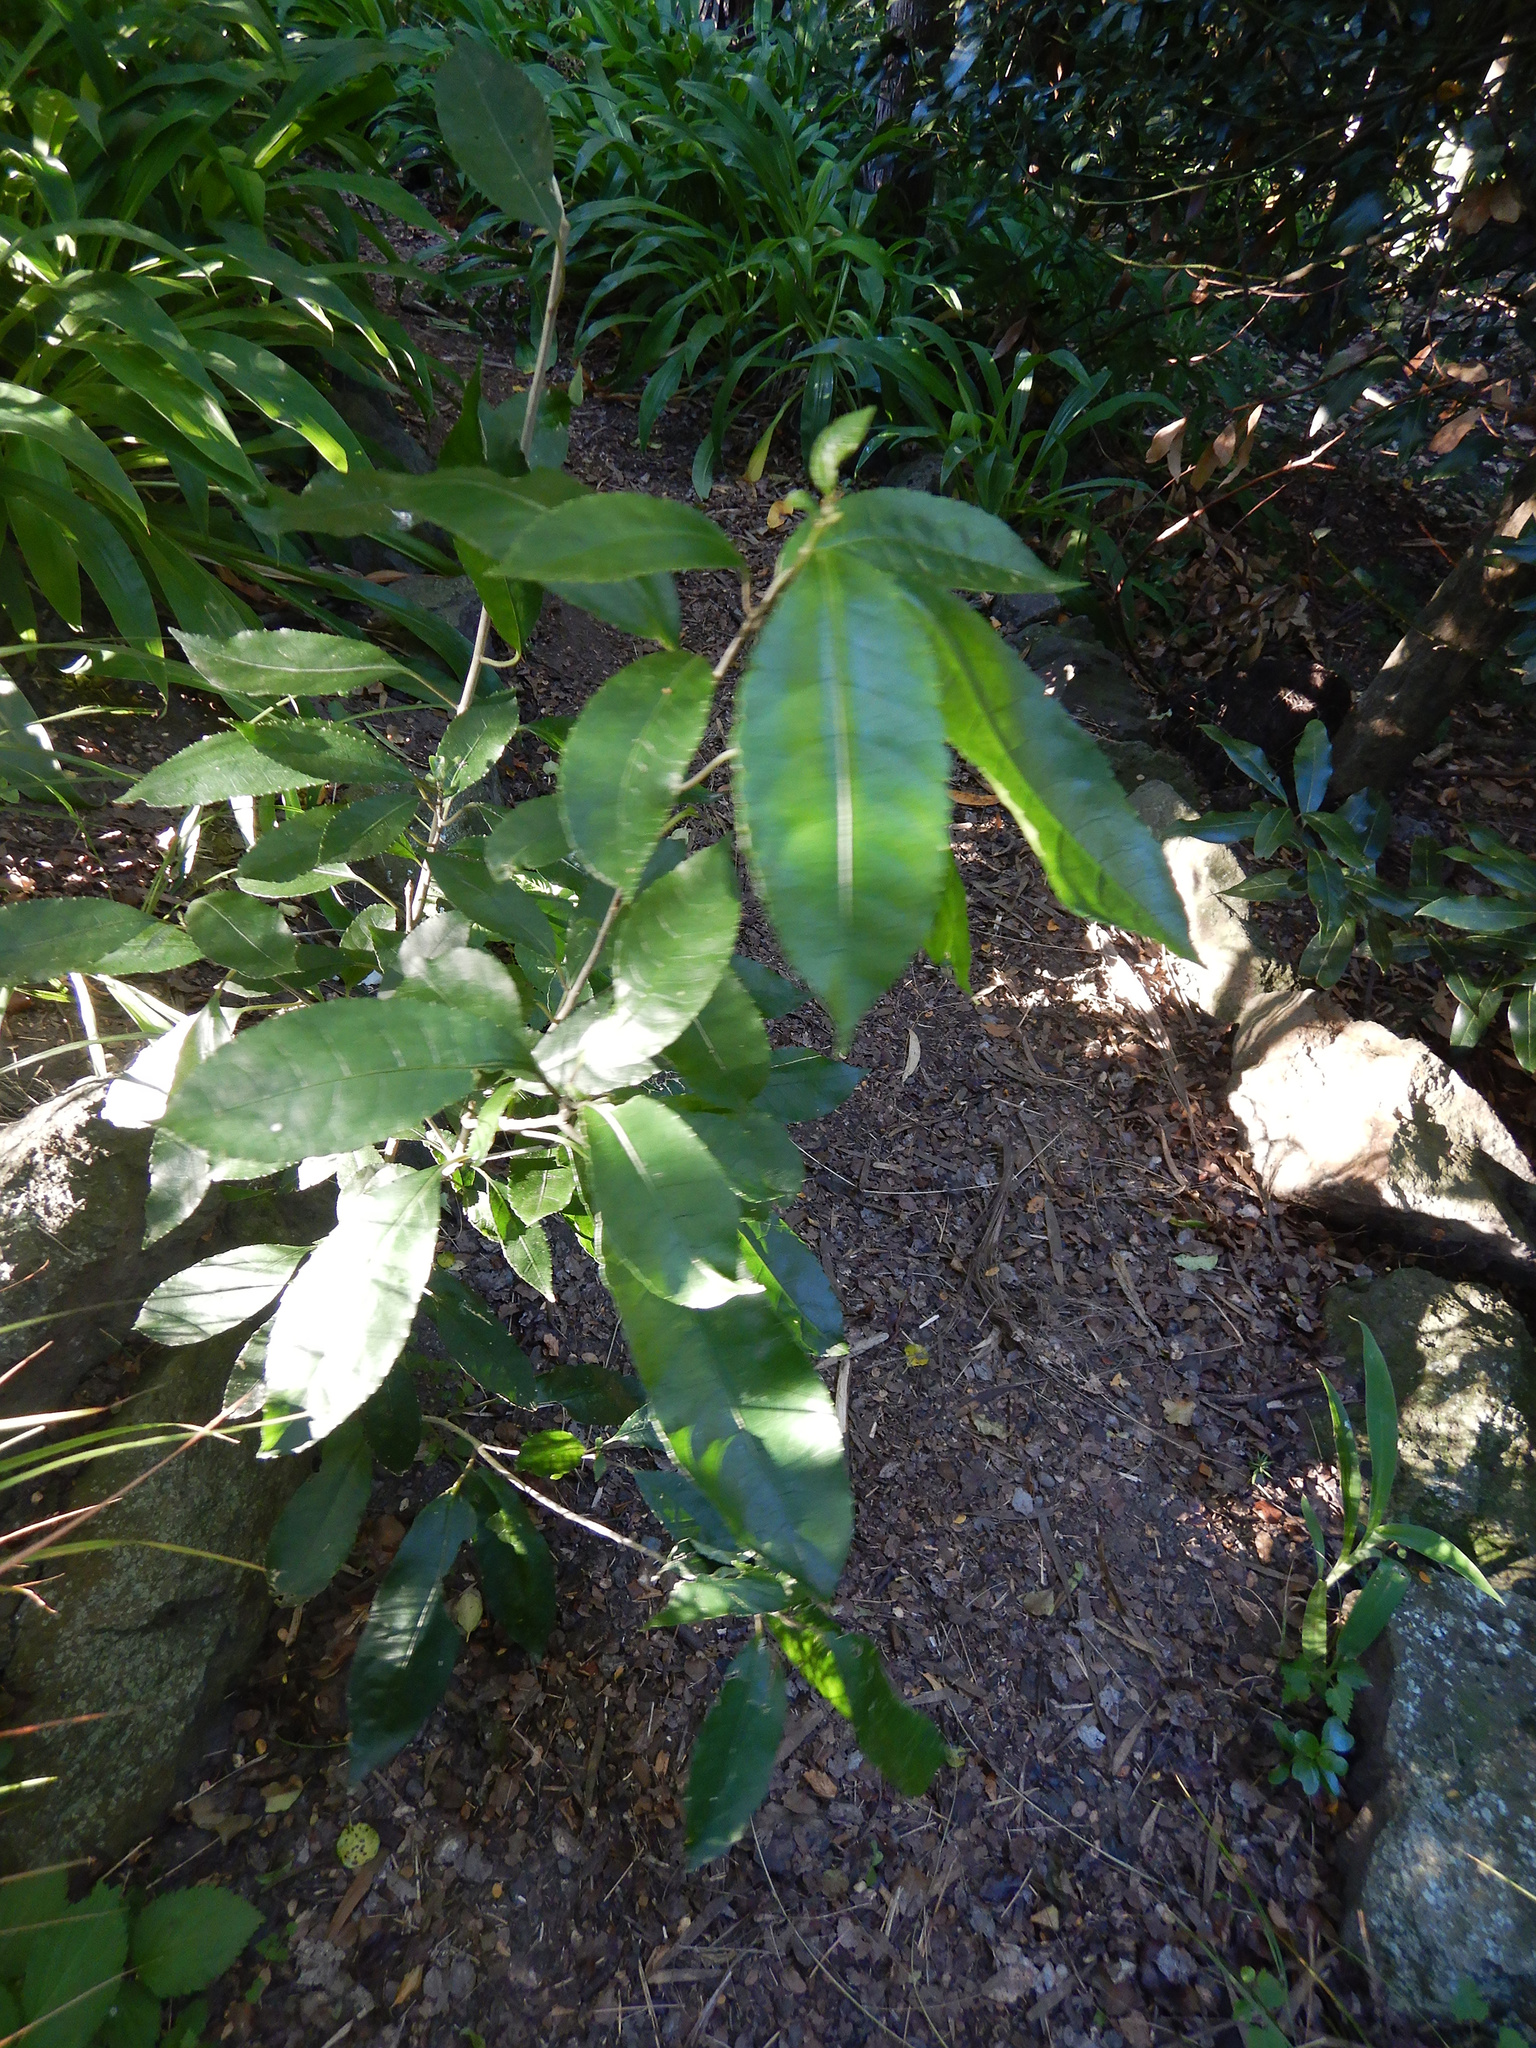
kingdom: Plantae
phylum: Tracheophyta
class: Magnoliopsida
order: Malpighiales
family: Violaceae
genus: Melicytus
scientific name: Melicytus ramiflorus
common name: Mahoe
